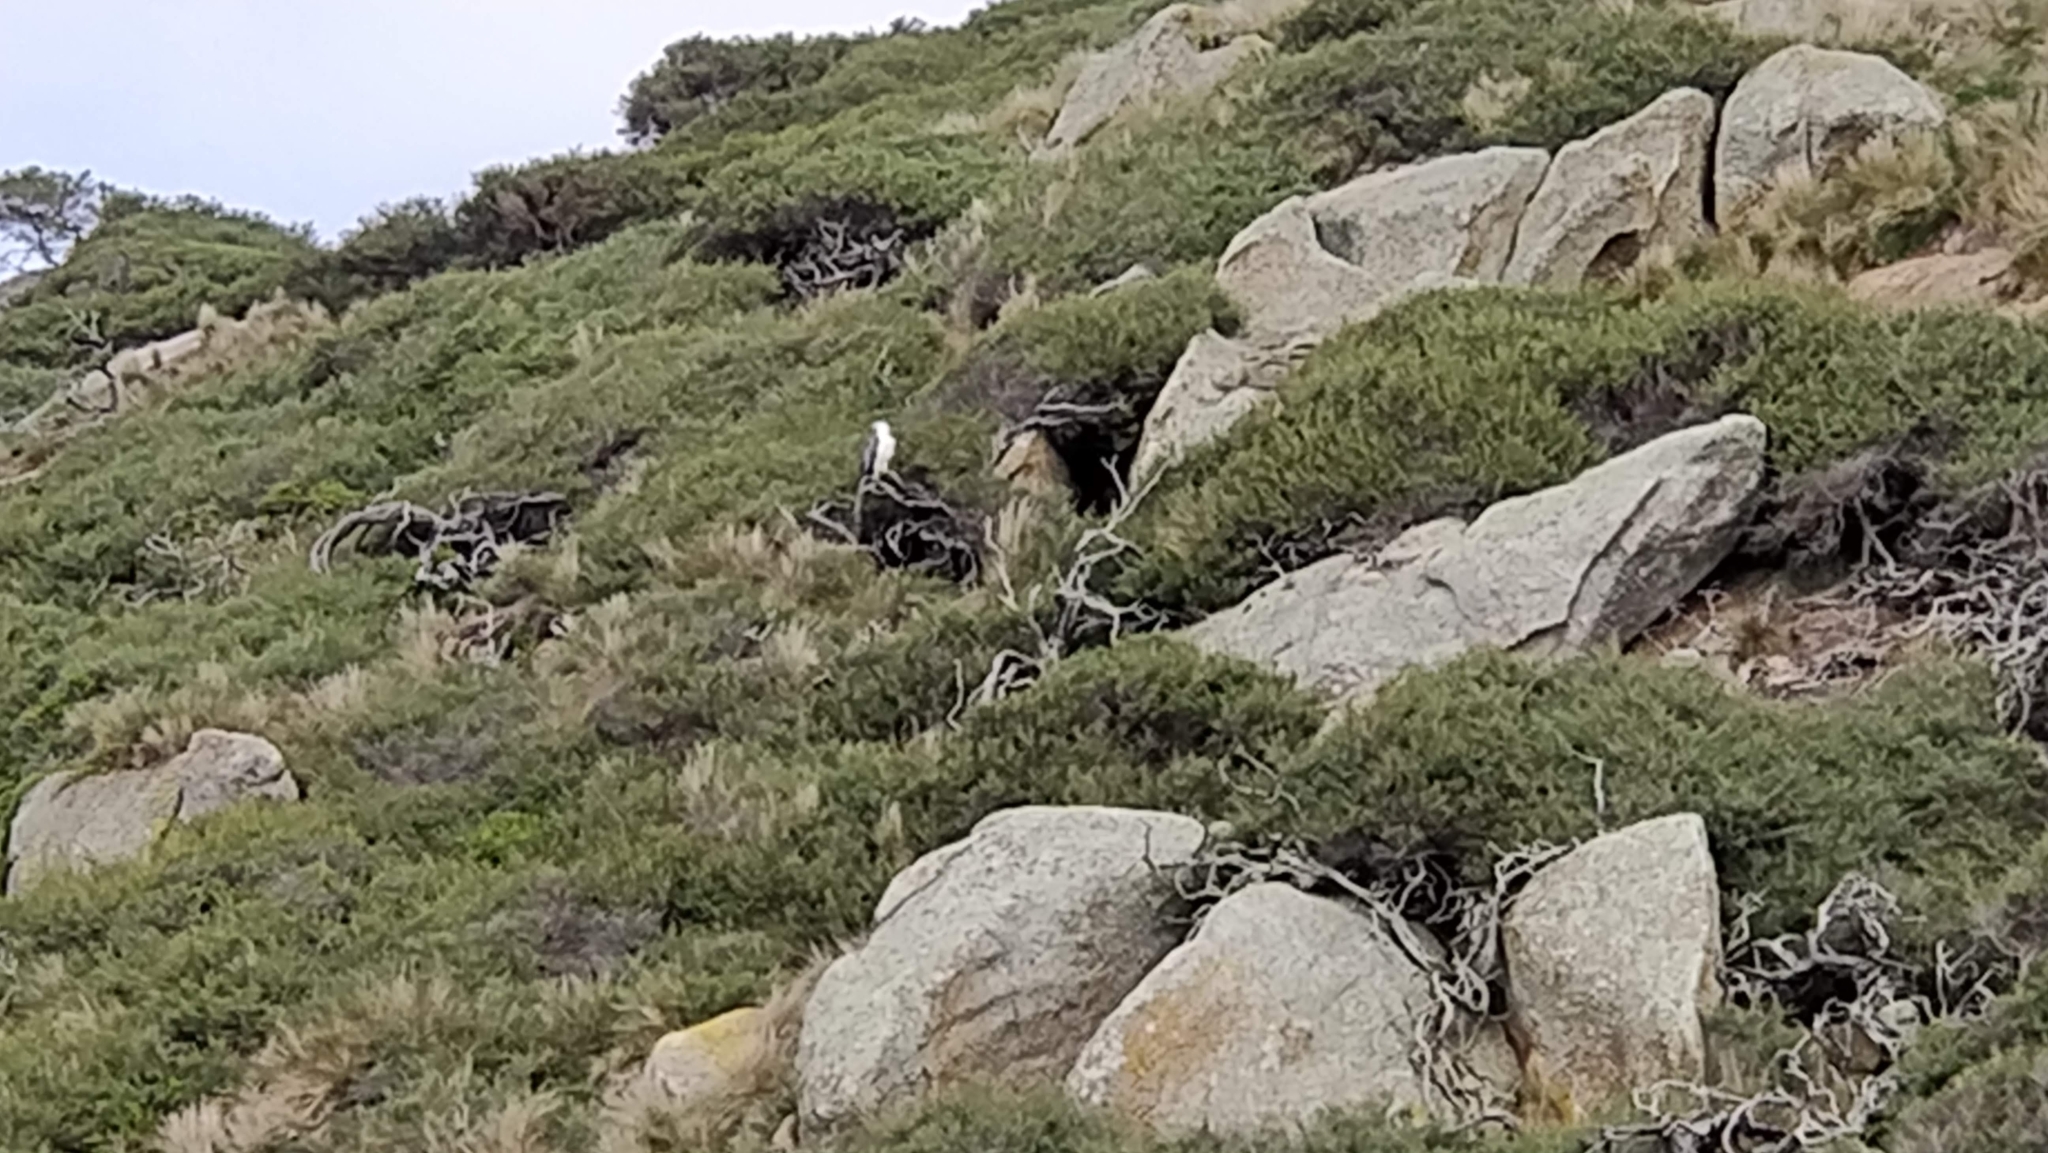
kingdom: Animalia
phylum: Chordata
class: Aves
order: Accipitriformes
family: Accipitridae
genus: Haliaeetus
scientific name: Haliaeetus leucogaster
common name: White-bellied sea eagle
